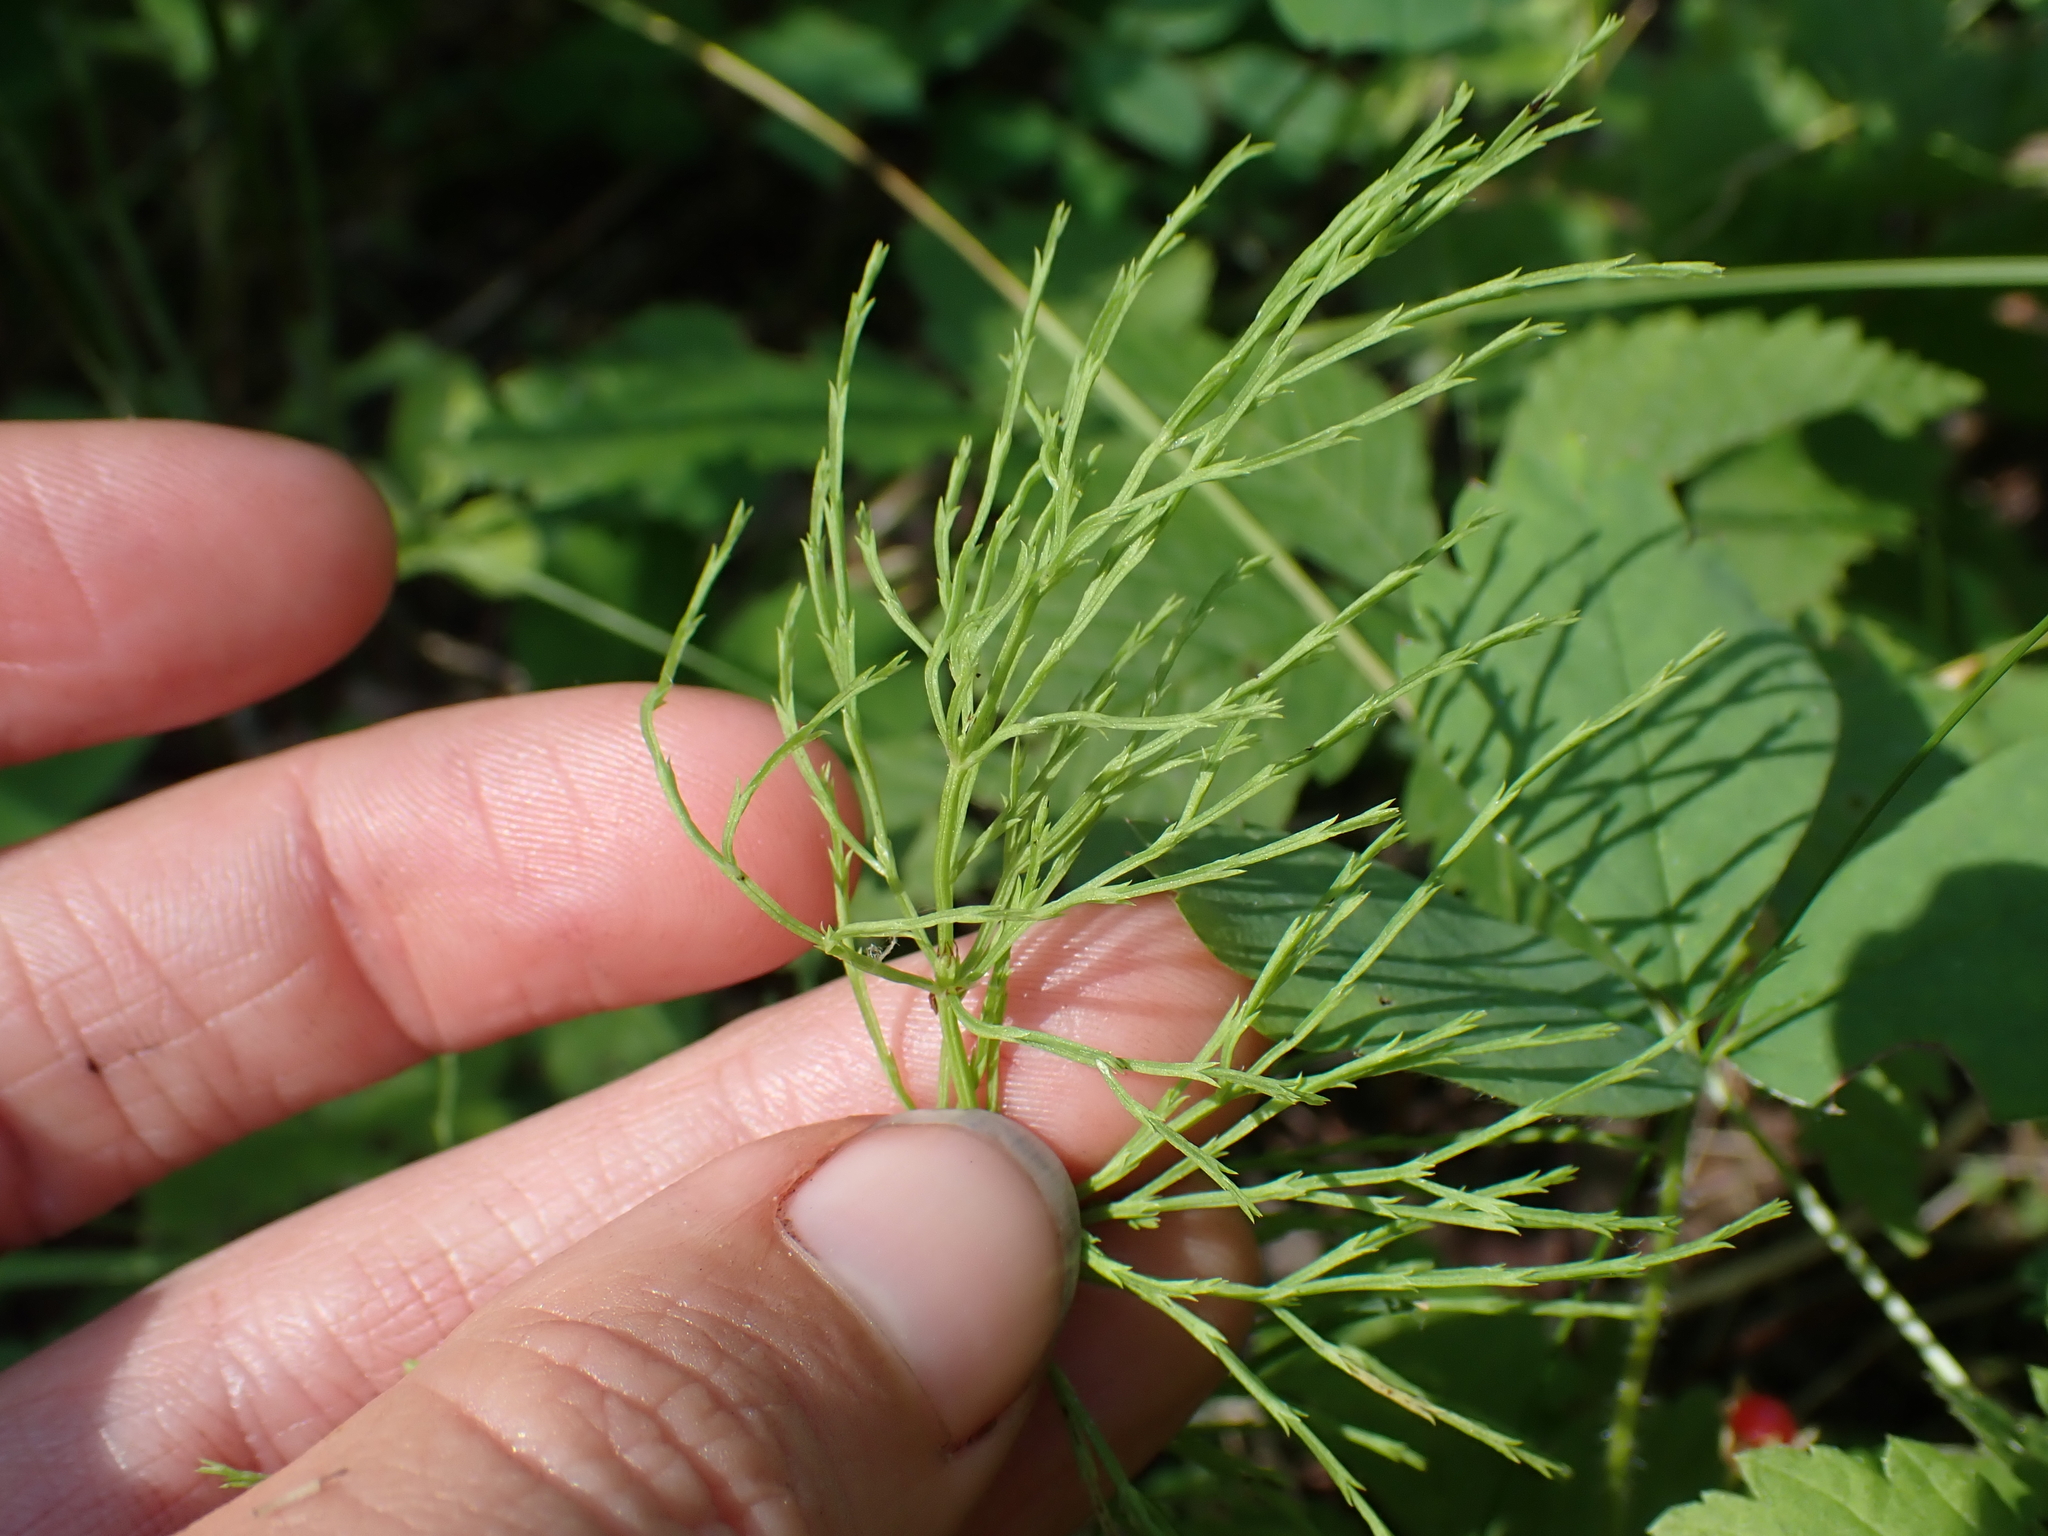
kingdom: Plantae
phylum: Tracheophyta
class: Polypodiopsida
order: Equisetales
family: Equisetaceae
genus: Equisetum
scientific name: Equisetum sylvaticum
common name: Wood horsetail
